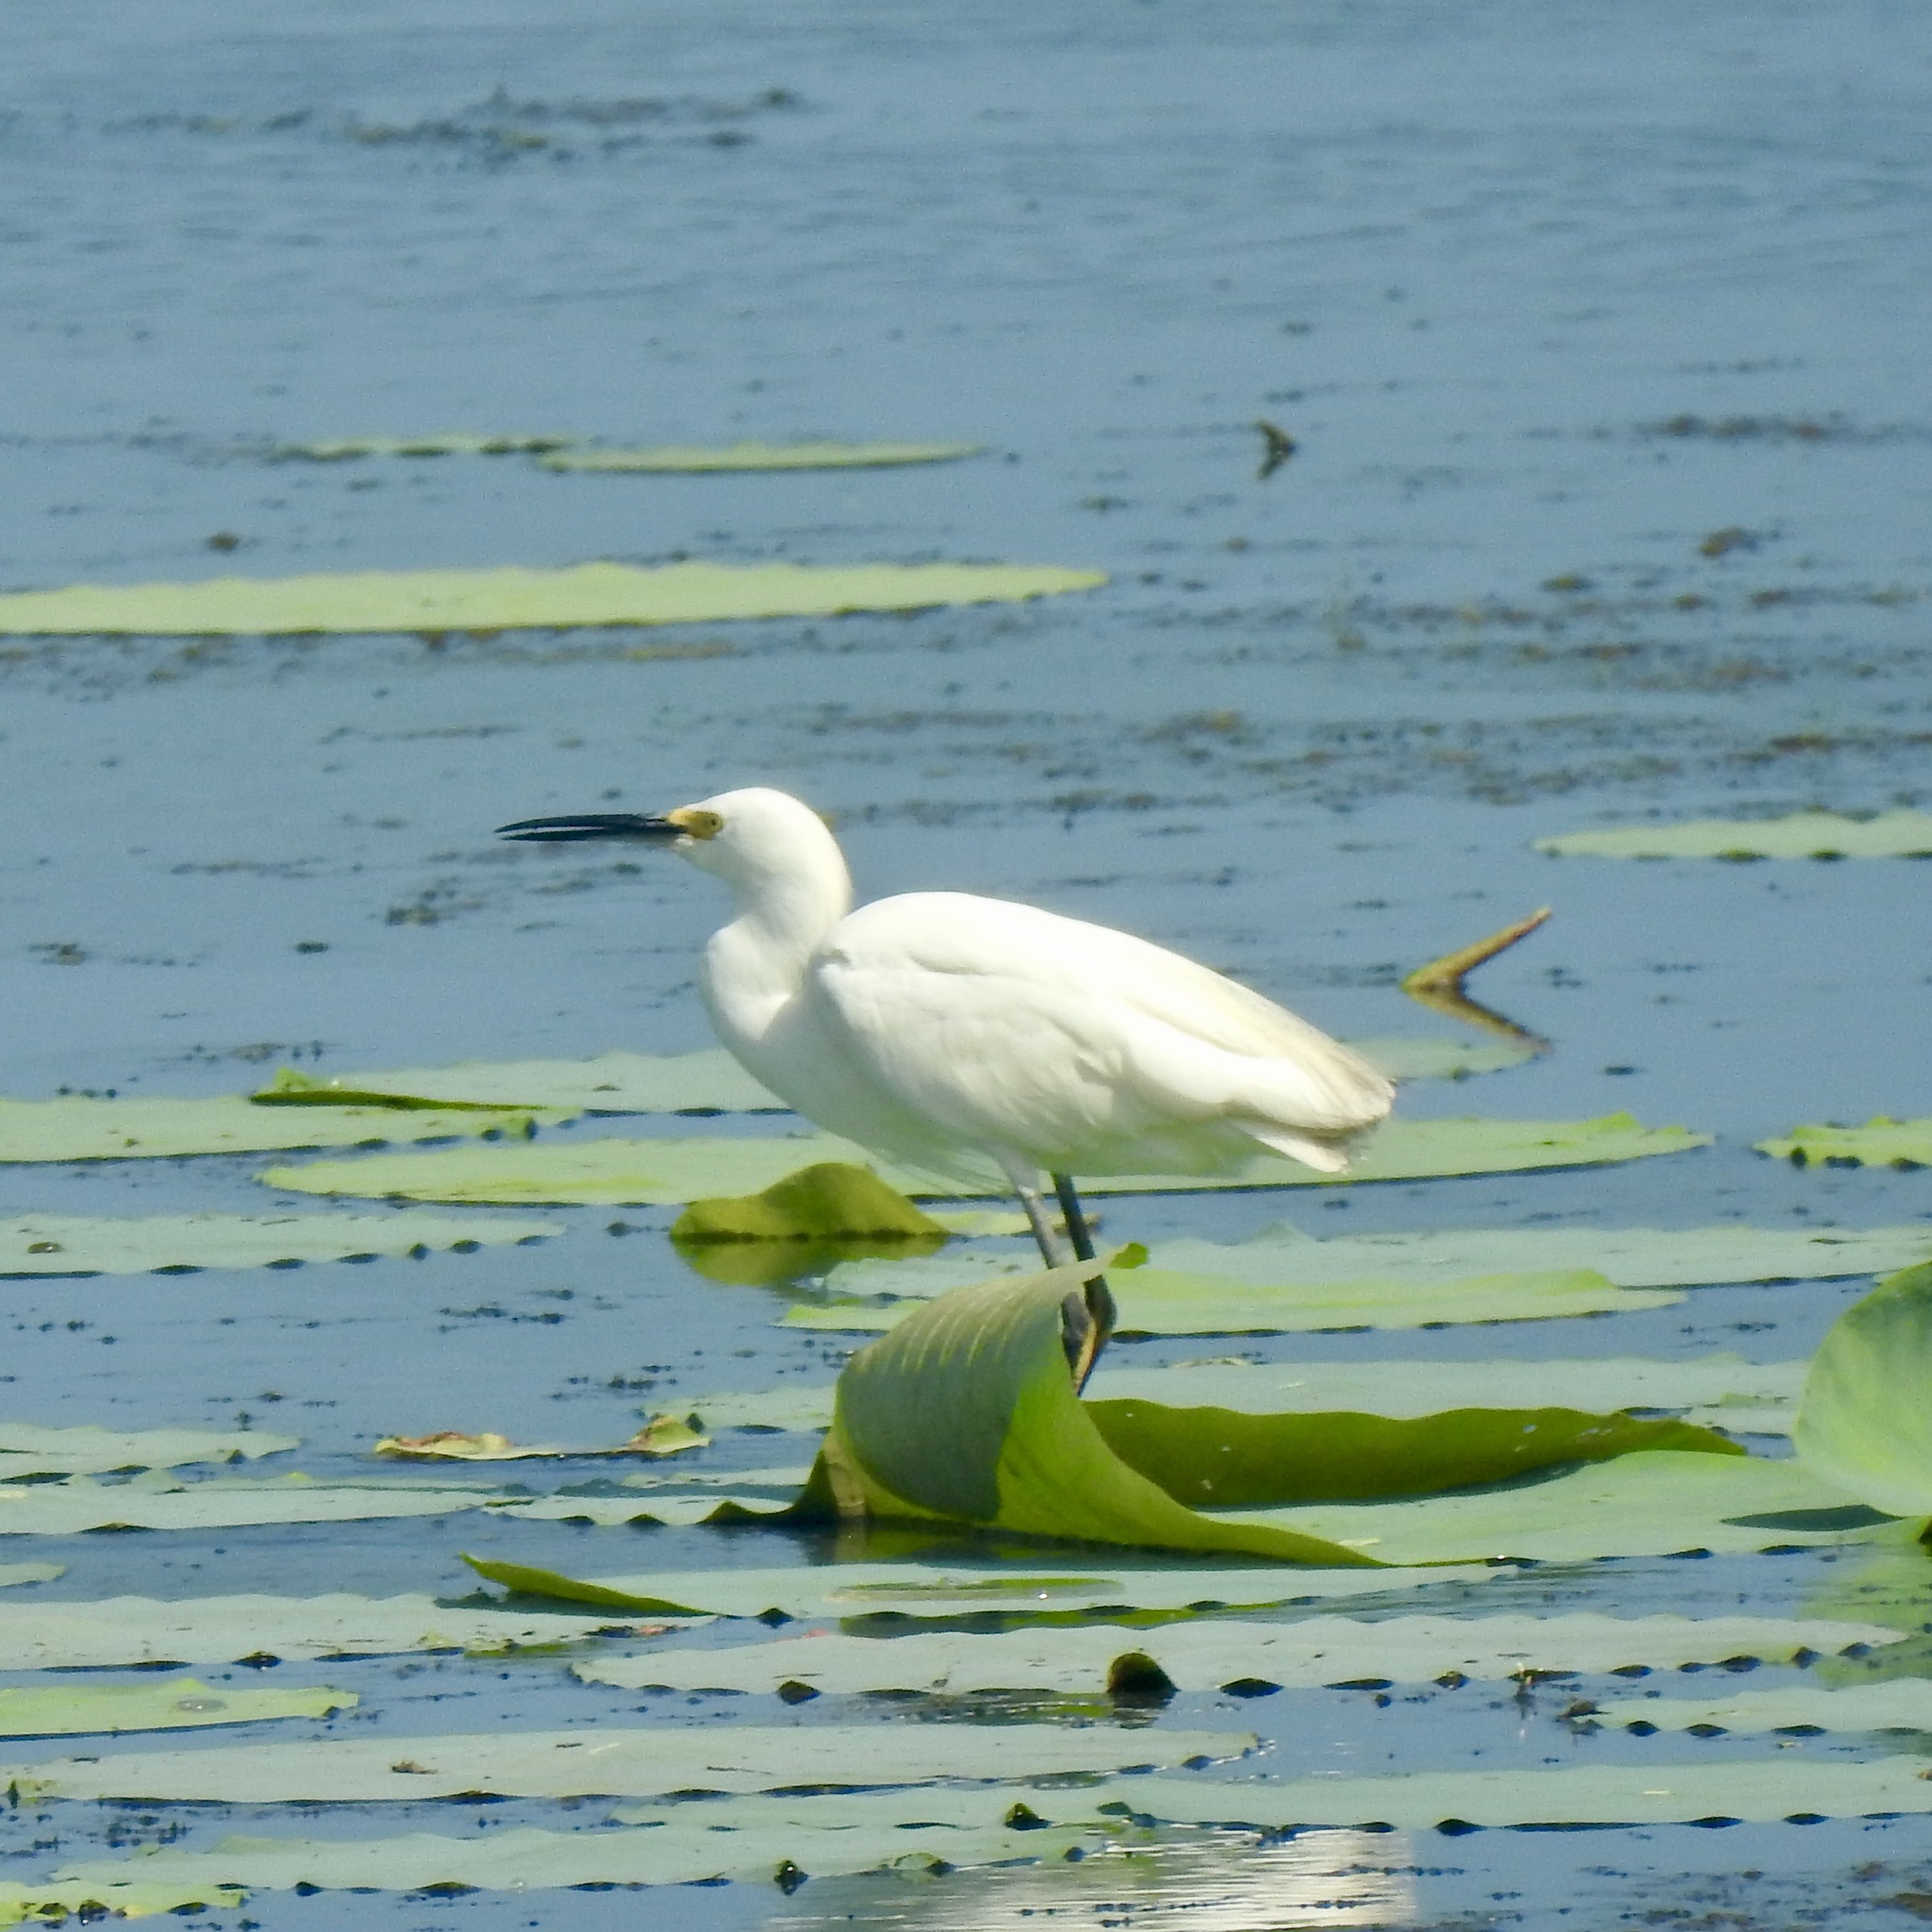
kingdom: Animalia
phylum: Chordata
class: Aves
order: Pelecaniformes
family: Ardeidae
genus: Egretta
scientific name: Egretta thula
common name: Snowy egret
